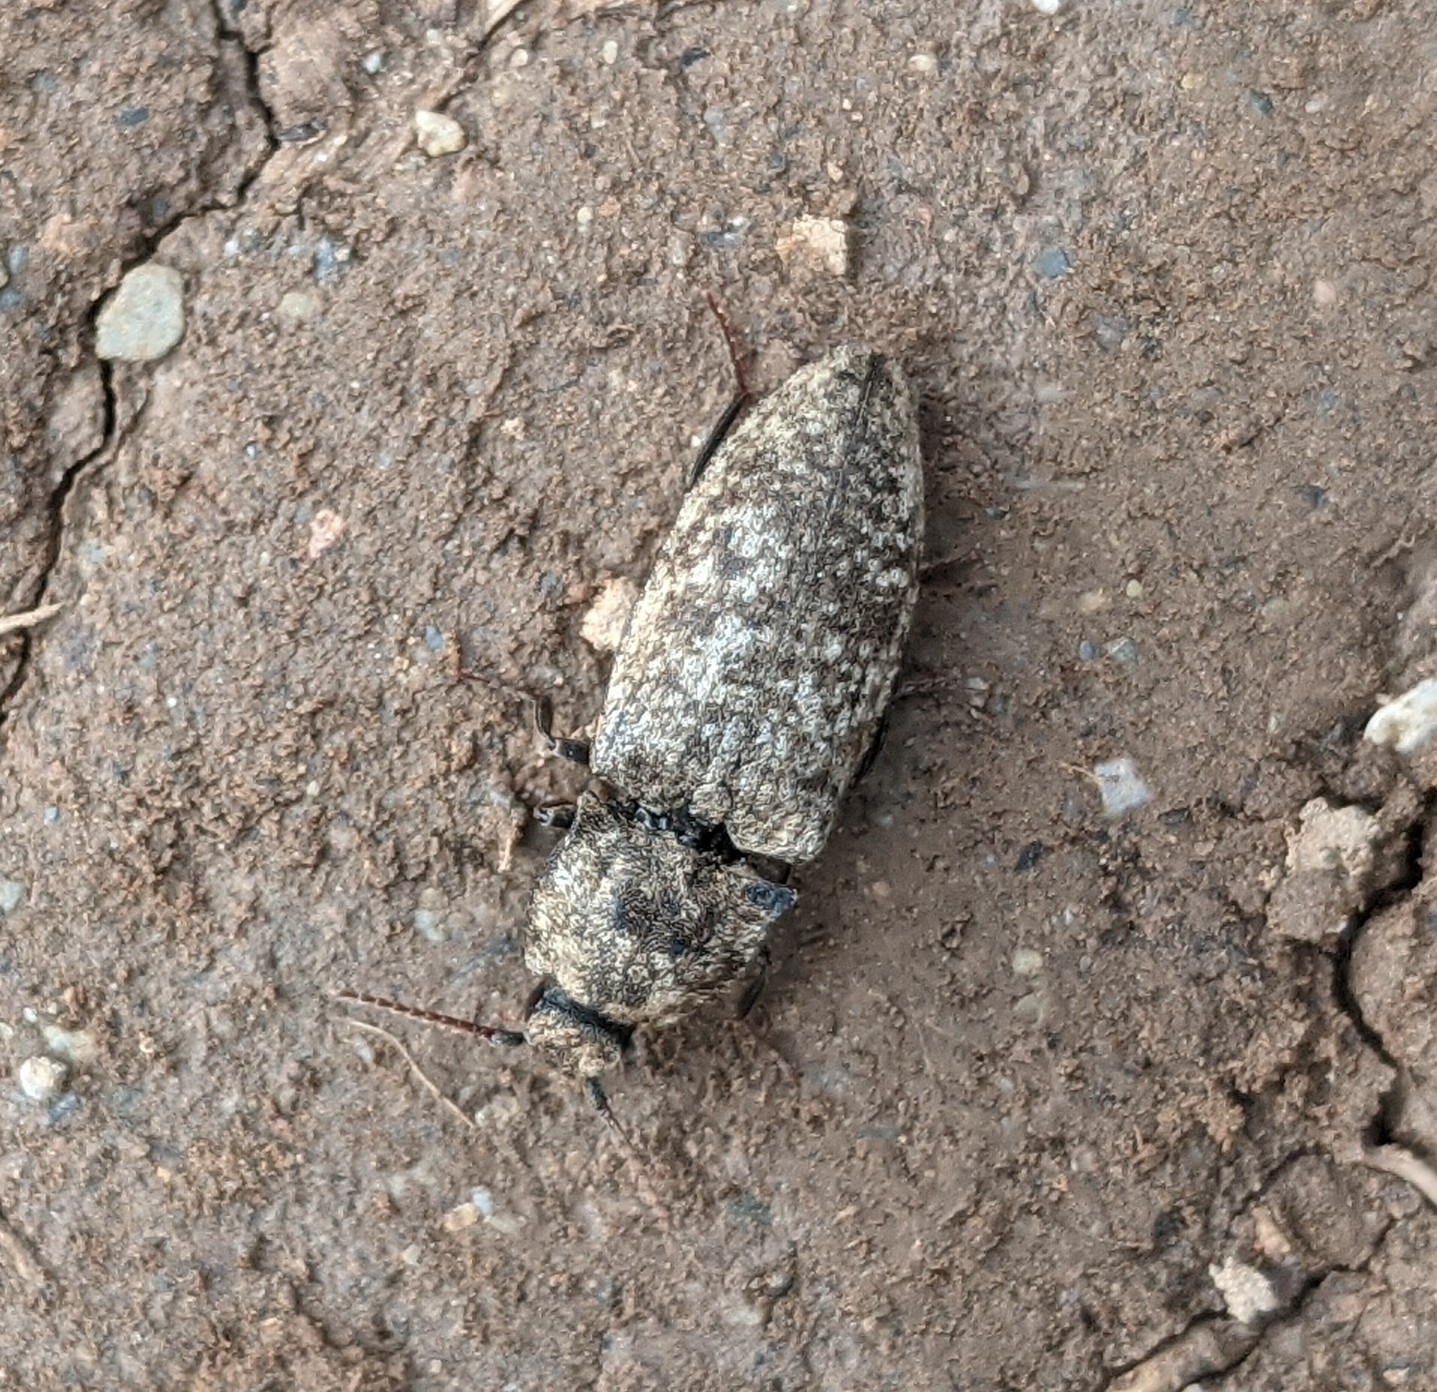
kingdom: Animalia
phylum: Arthropoda
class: Insecta
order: Coleoptera
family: Elateridae
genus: Agrypnus
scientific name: Agrypnus murinus
